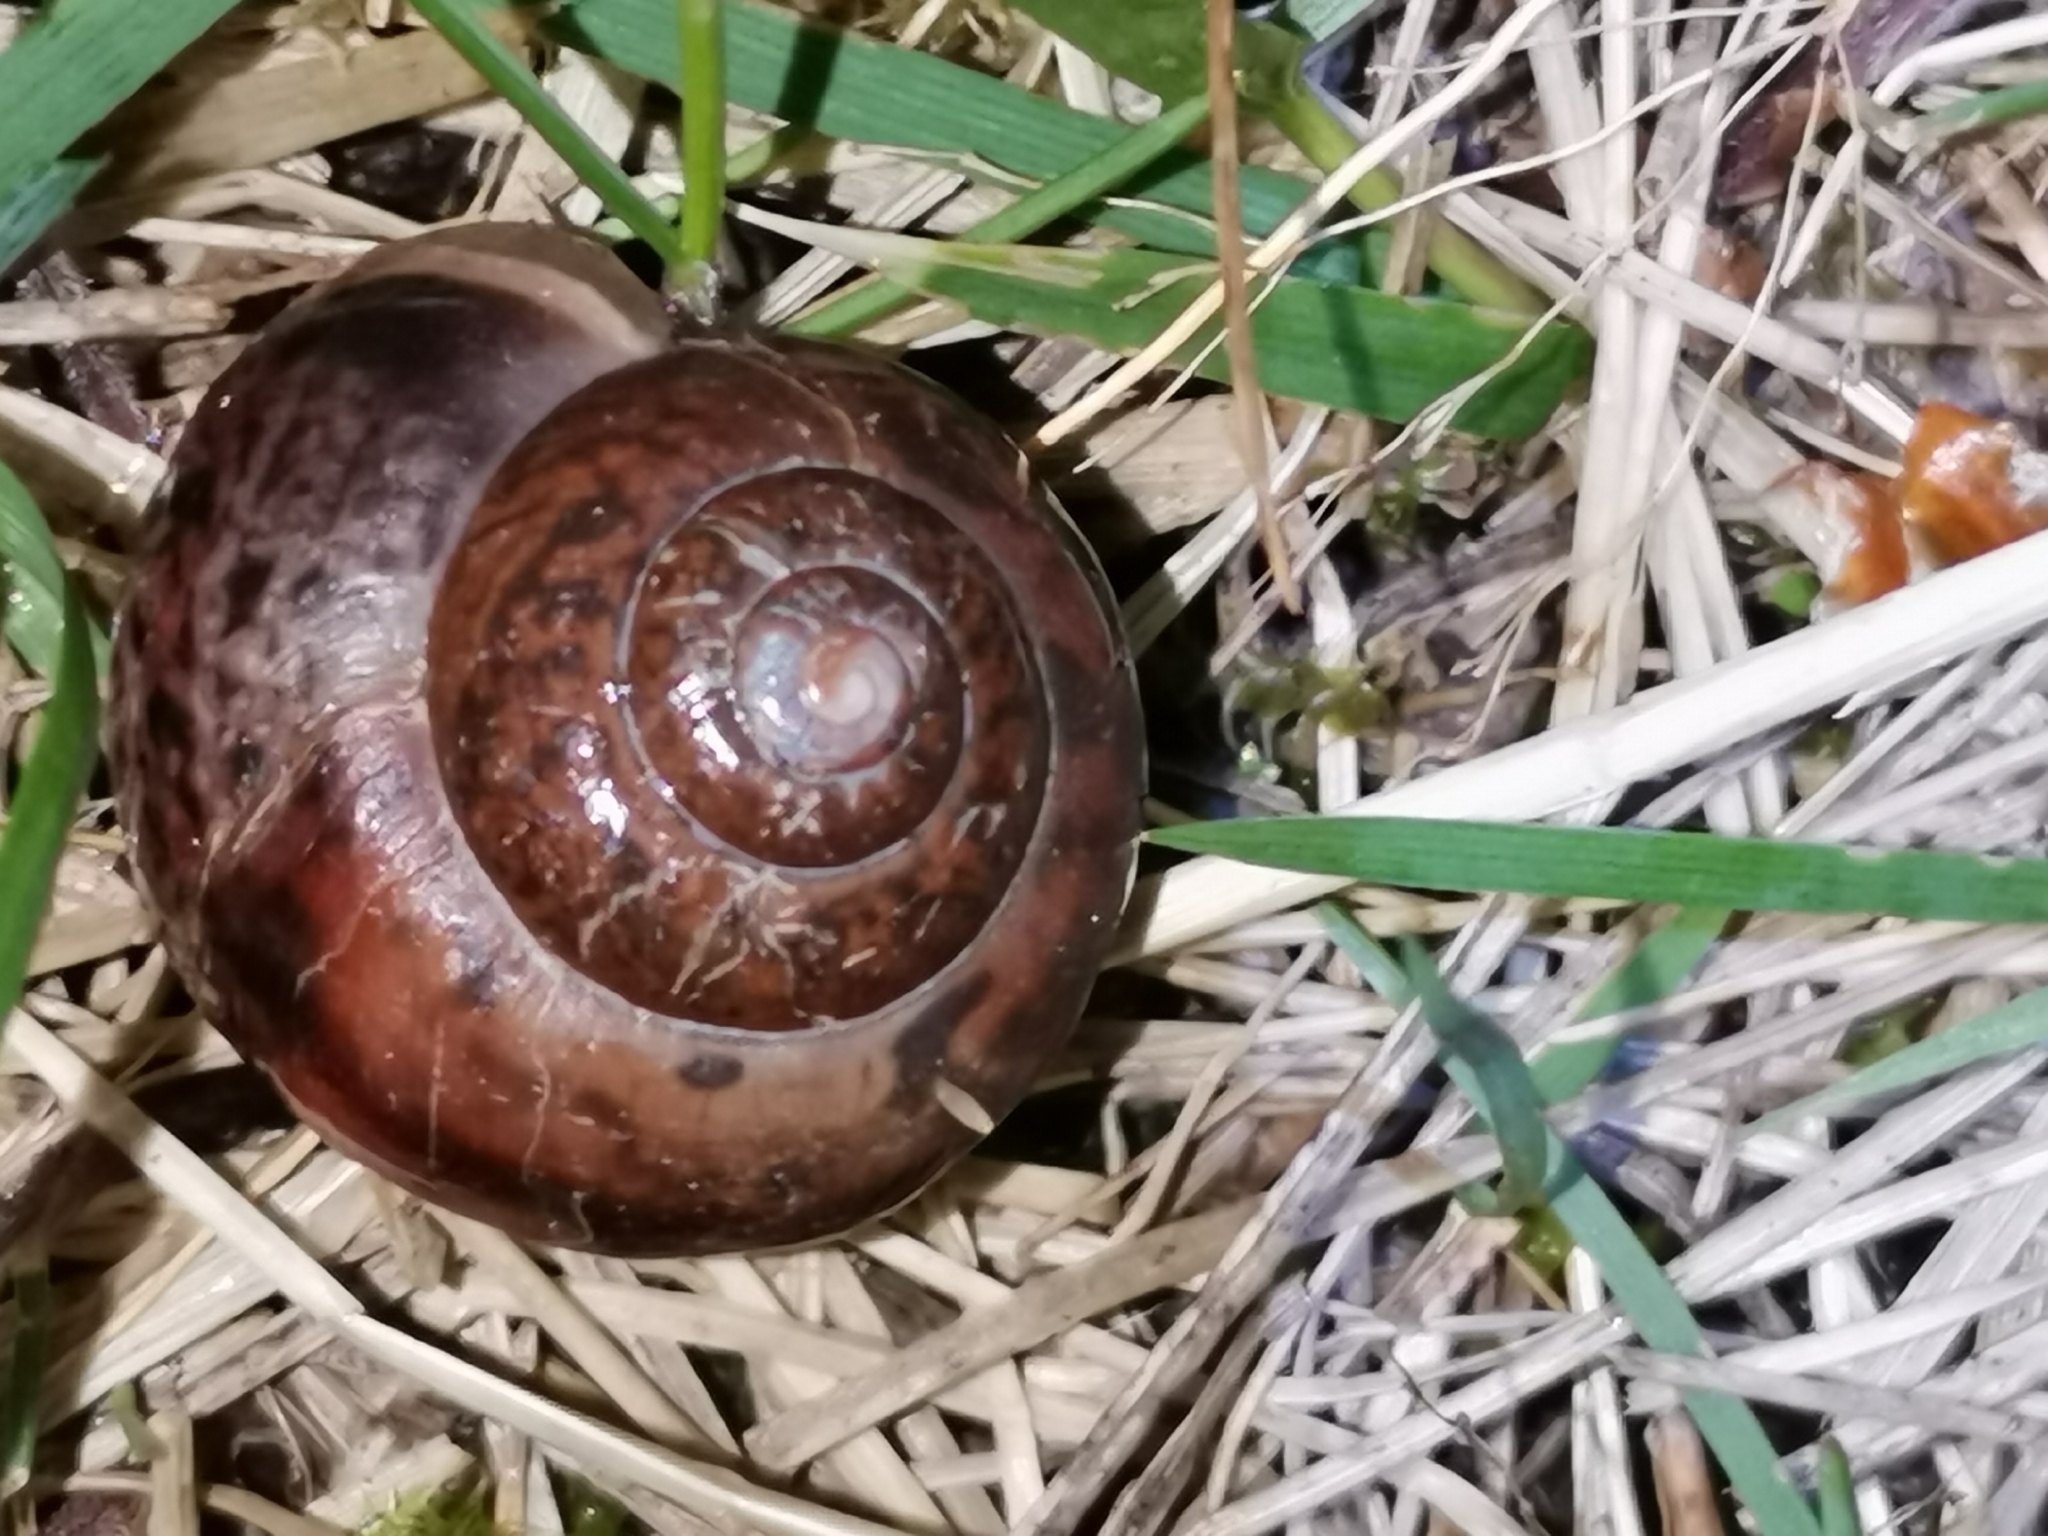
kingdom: Animalia
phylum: Mollusca
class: Gastropoda
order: Stylommatophora
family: Camaenidae
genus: Fruticicola
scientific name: Fruticicola fruticum
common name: Bush snail
